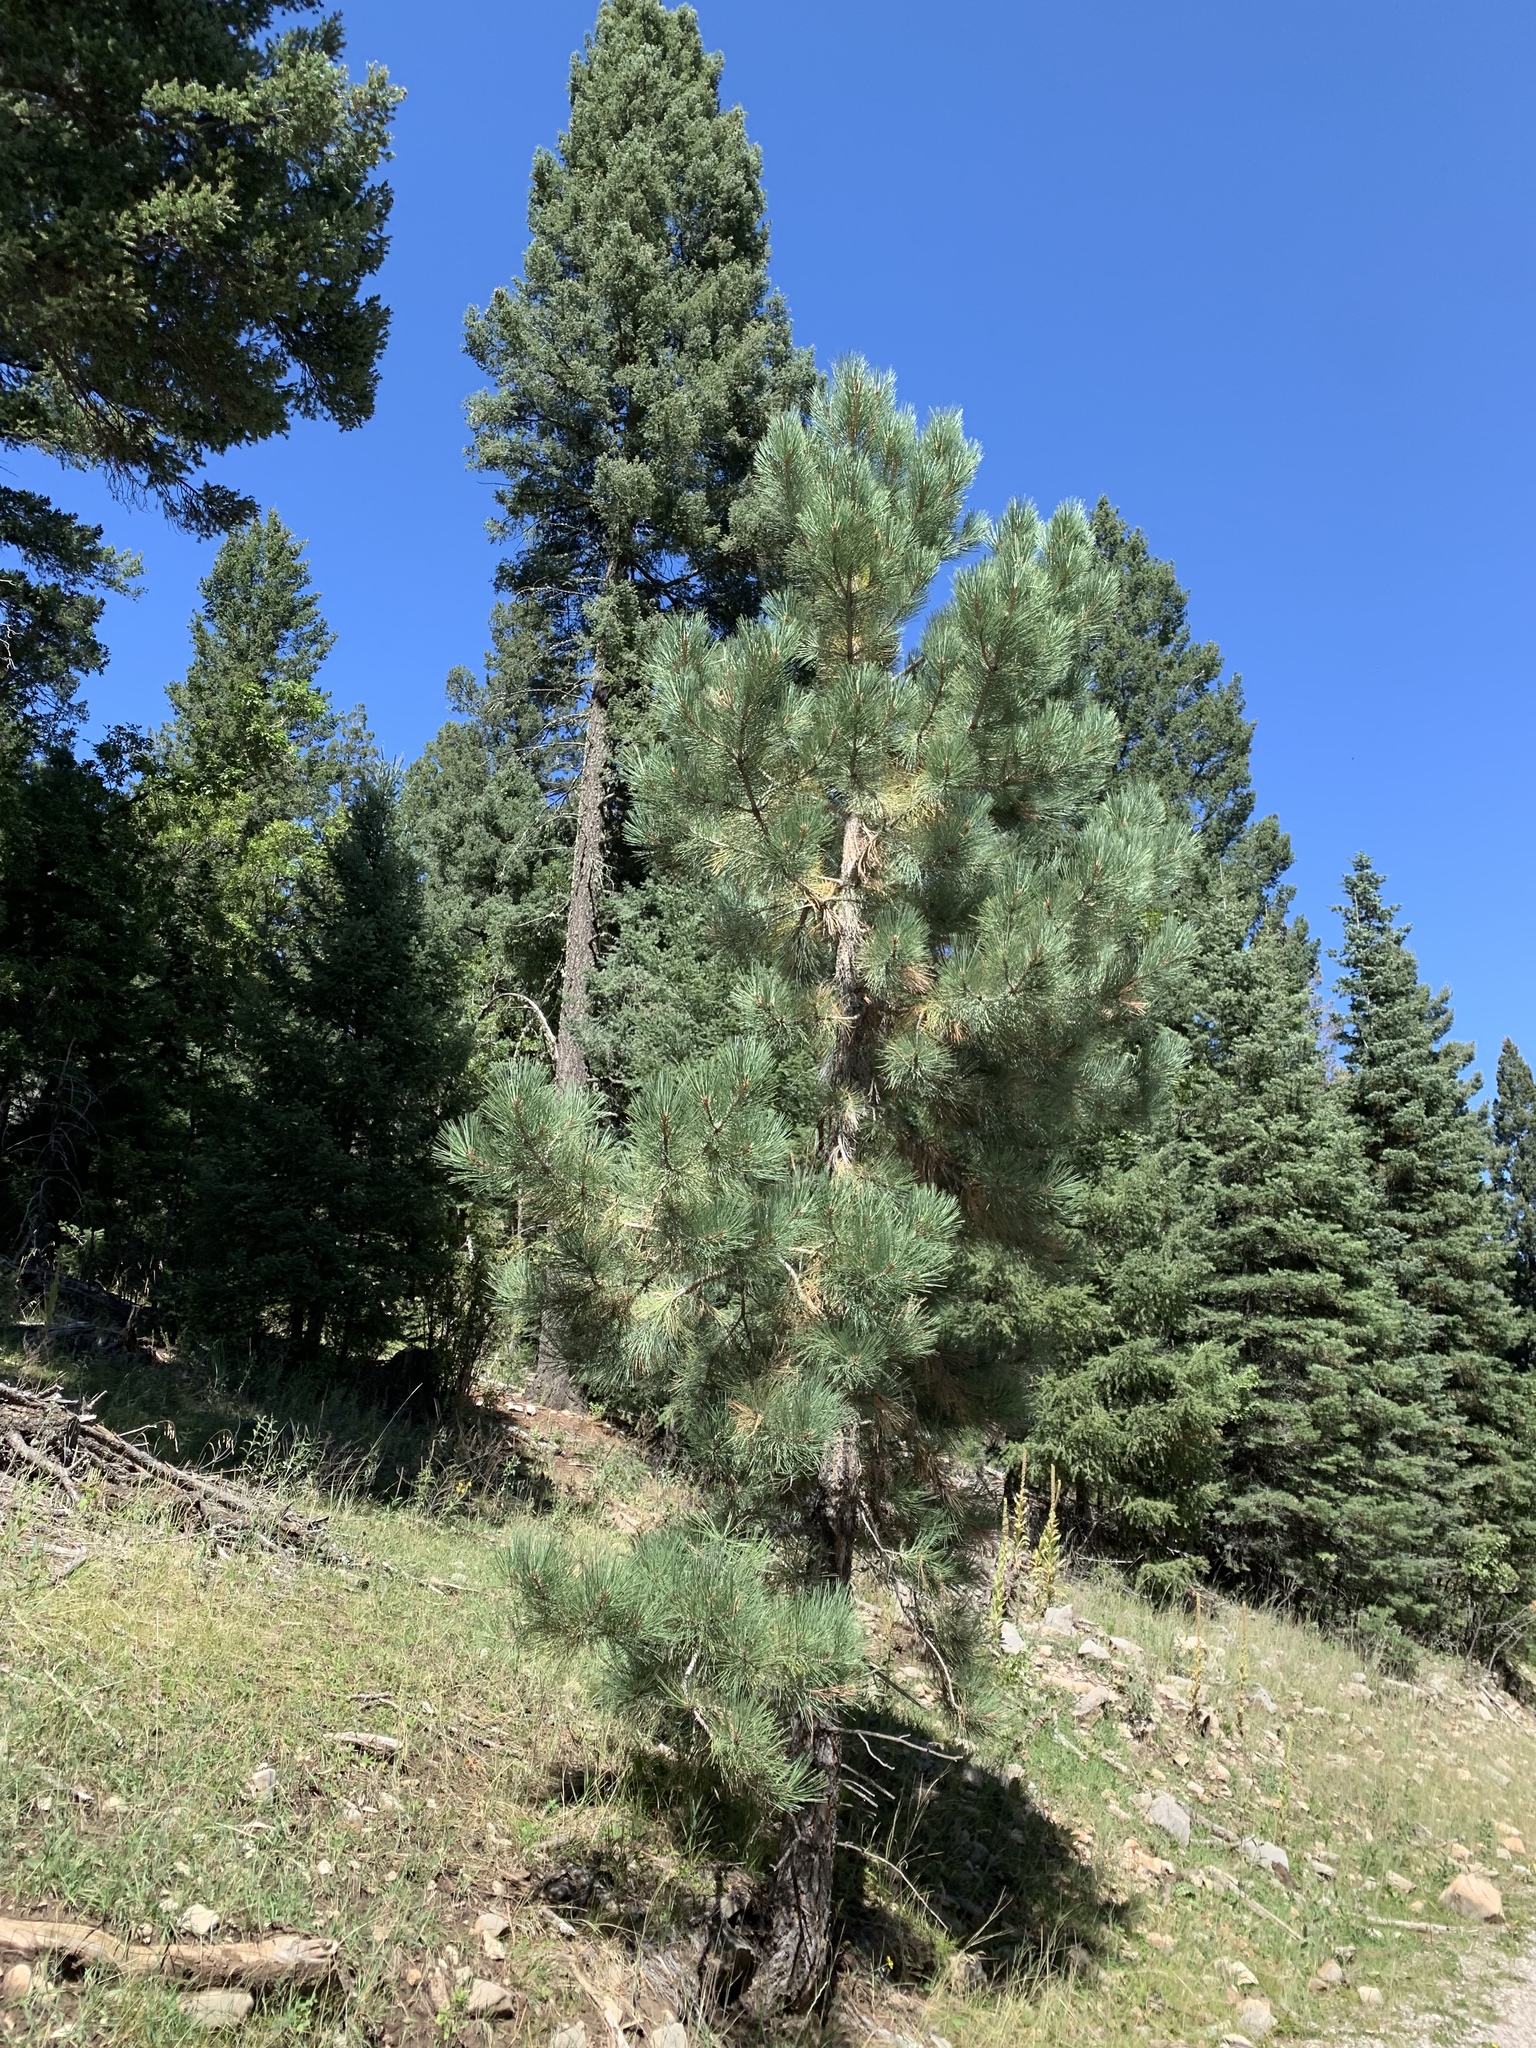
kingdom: Plantae
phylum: Tracheophyta
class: Pinopsida
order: Pinales
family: Pinaceae
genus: Pinus
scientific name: Pinus ponderosa
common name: Western yellow-pine
